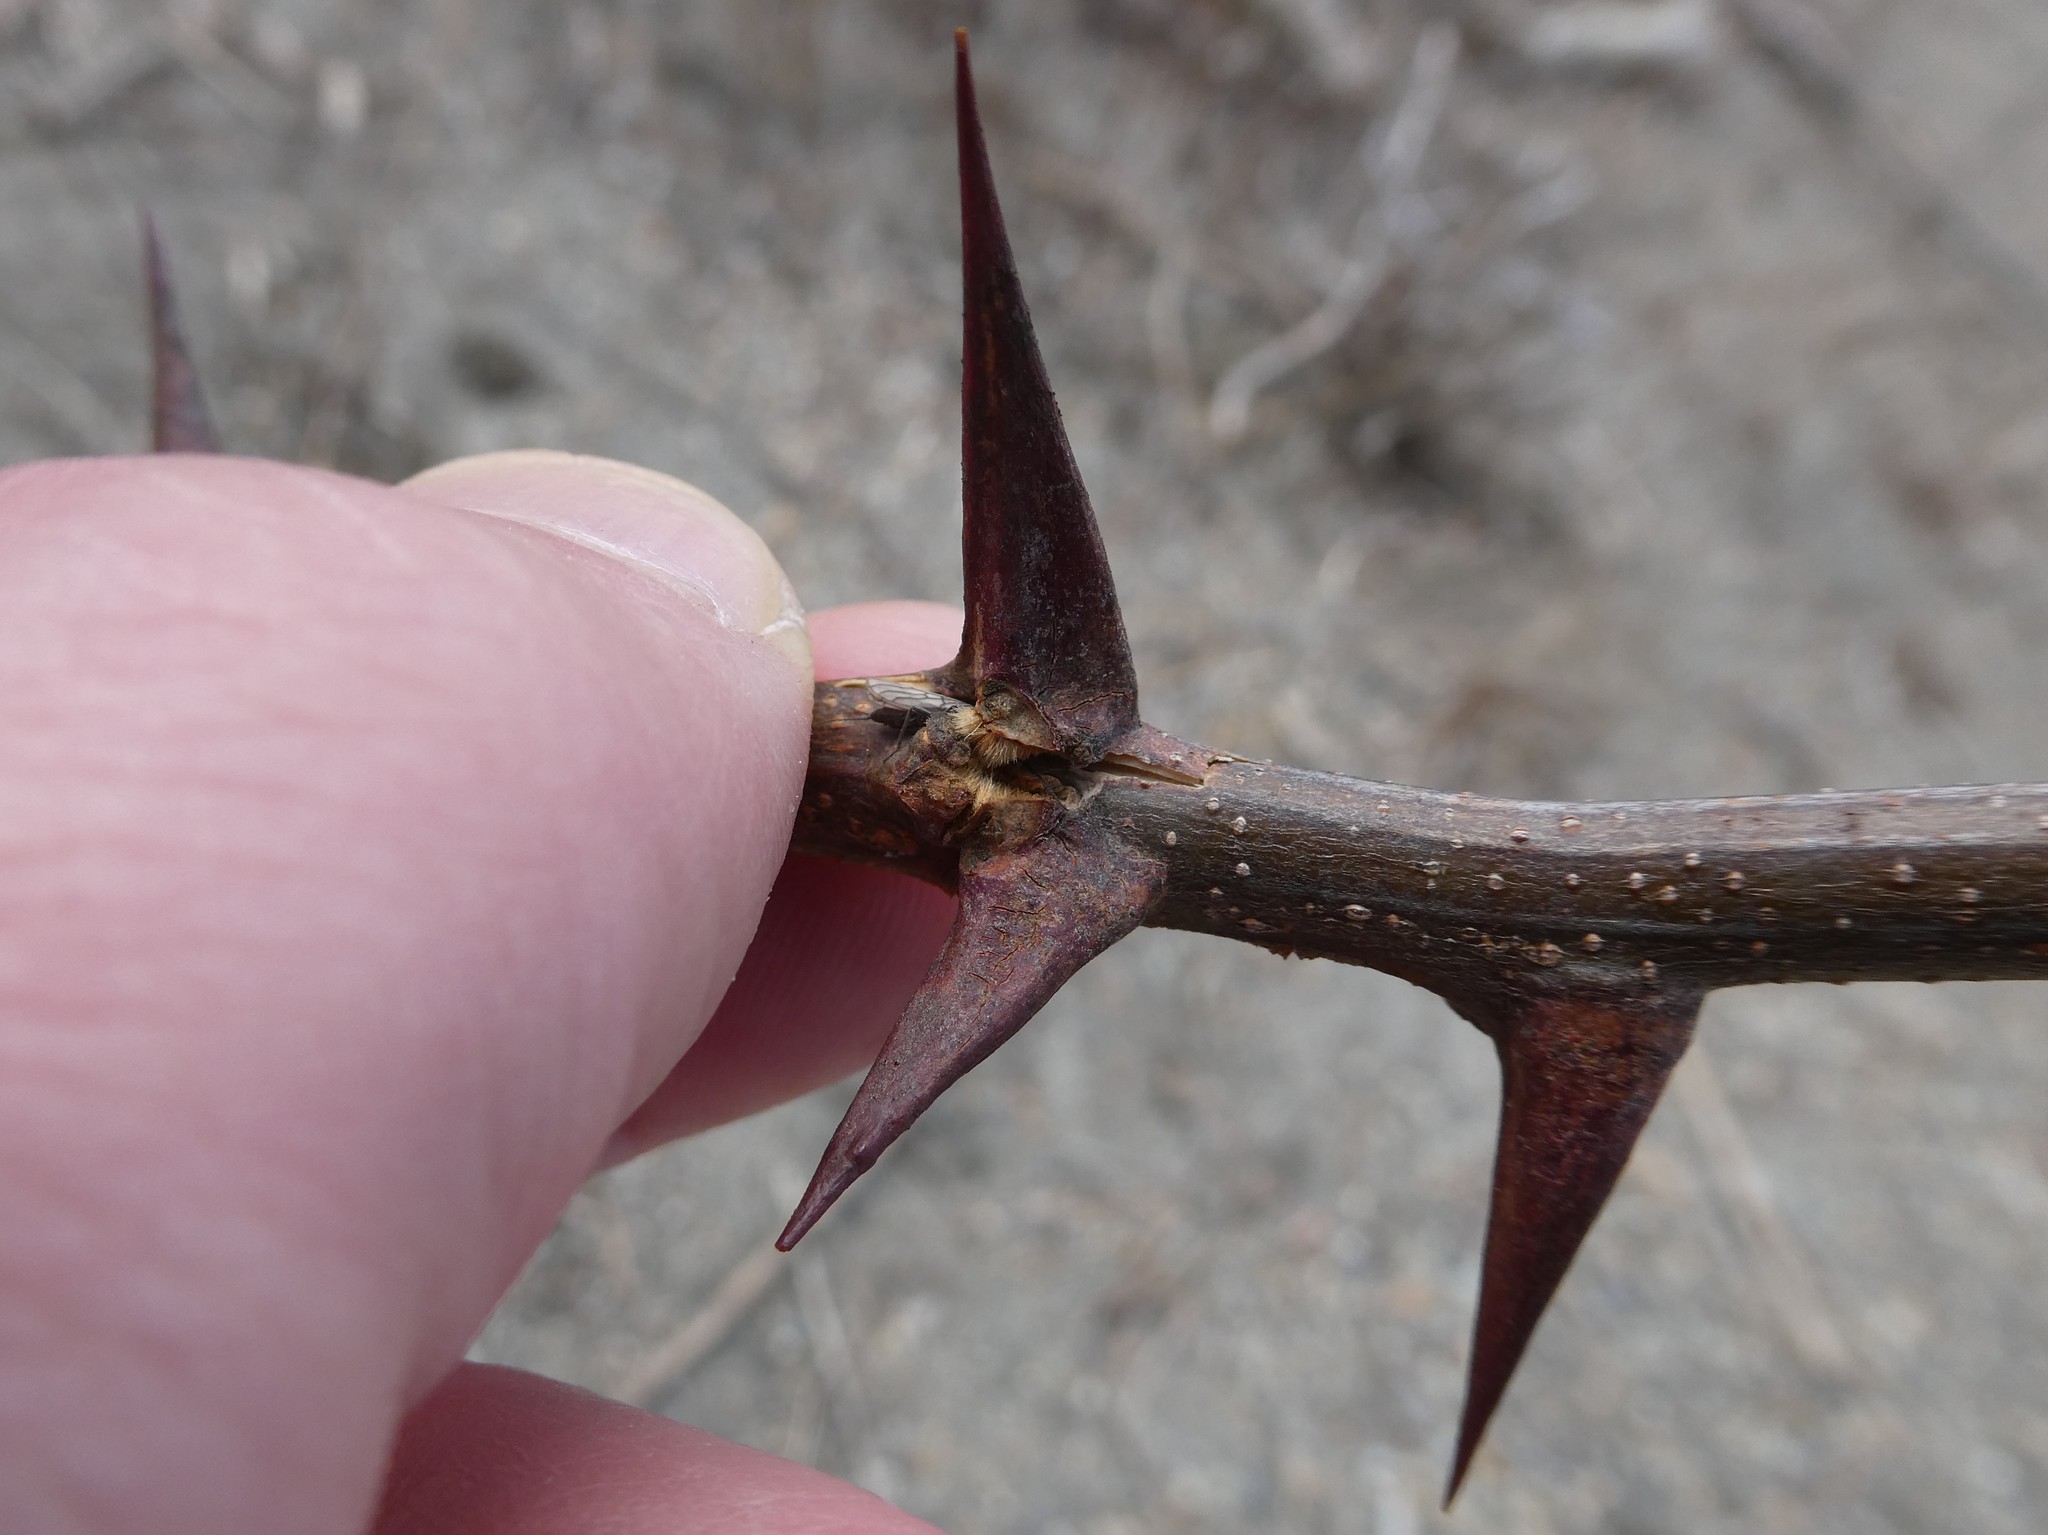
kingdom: Plantae
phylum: Tracheophyta
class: Magnoliopsida
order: Fabales
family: Fabaceae
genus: Robinia
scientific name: Robinia pseudoacacia
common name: Black locust
